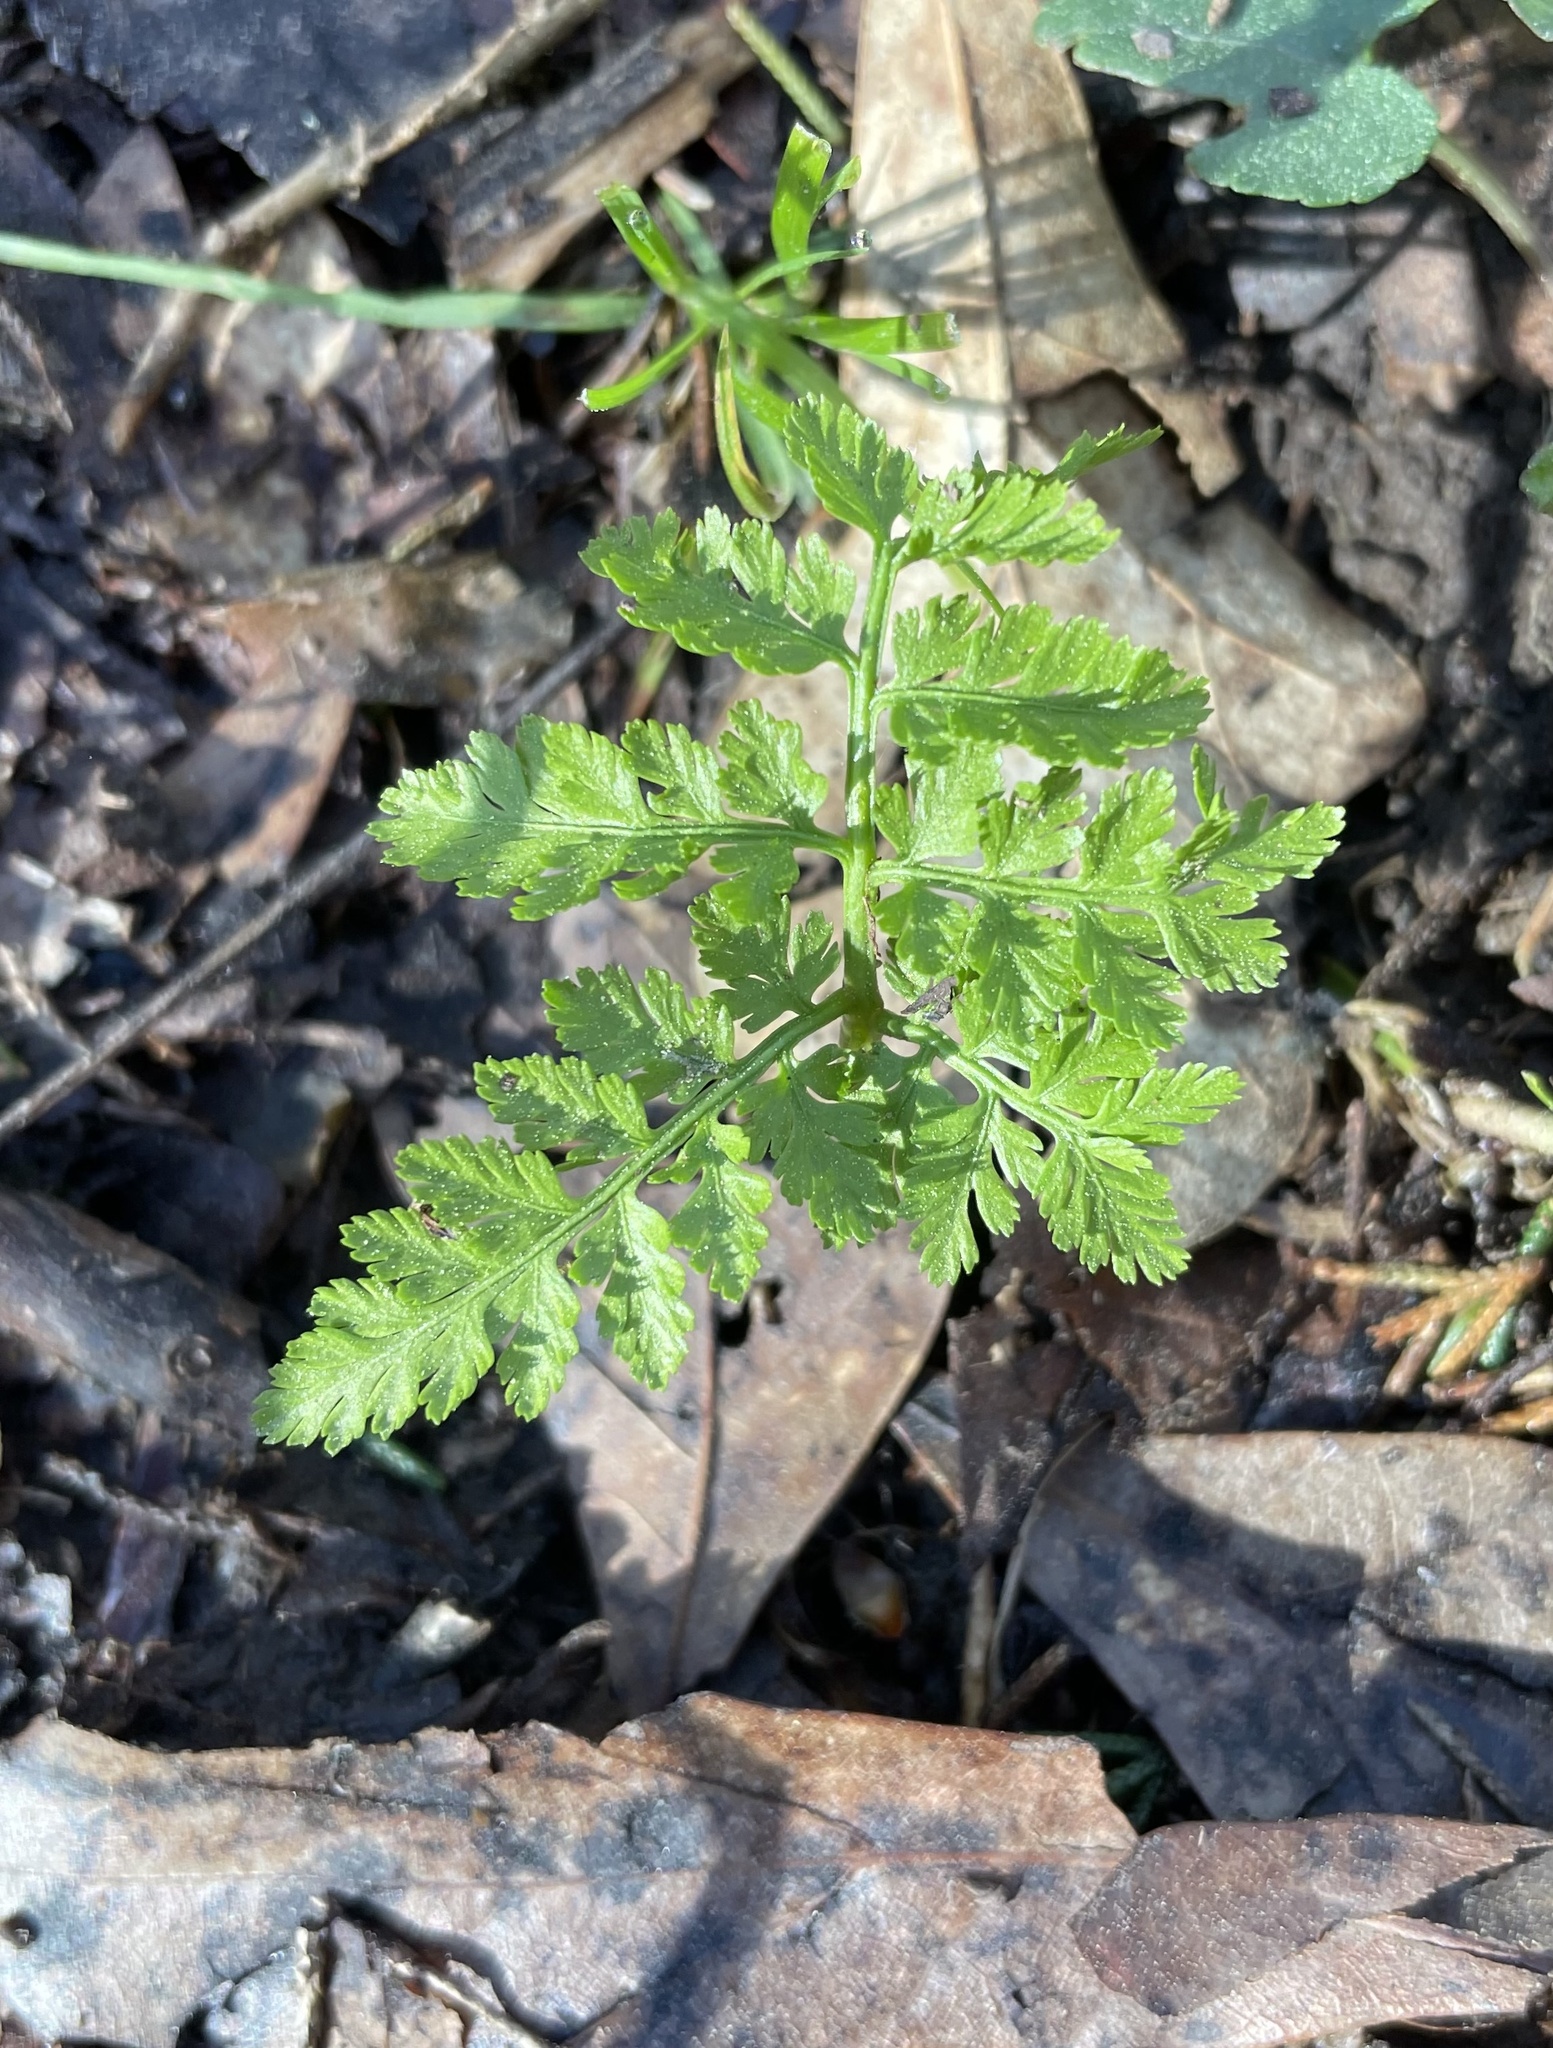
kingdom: Plantae
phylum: Tracheophyta
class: Polypodiopsida
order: Ophioglossales
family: Ophioglossaceae
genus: Botrypus
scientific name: Botrypus virginianus
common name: Common grapefern
